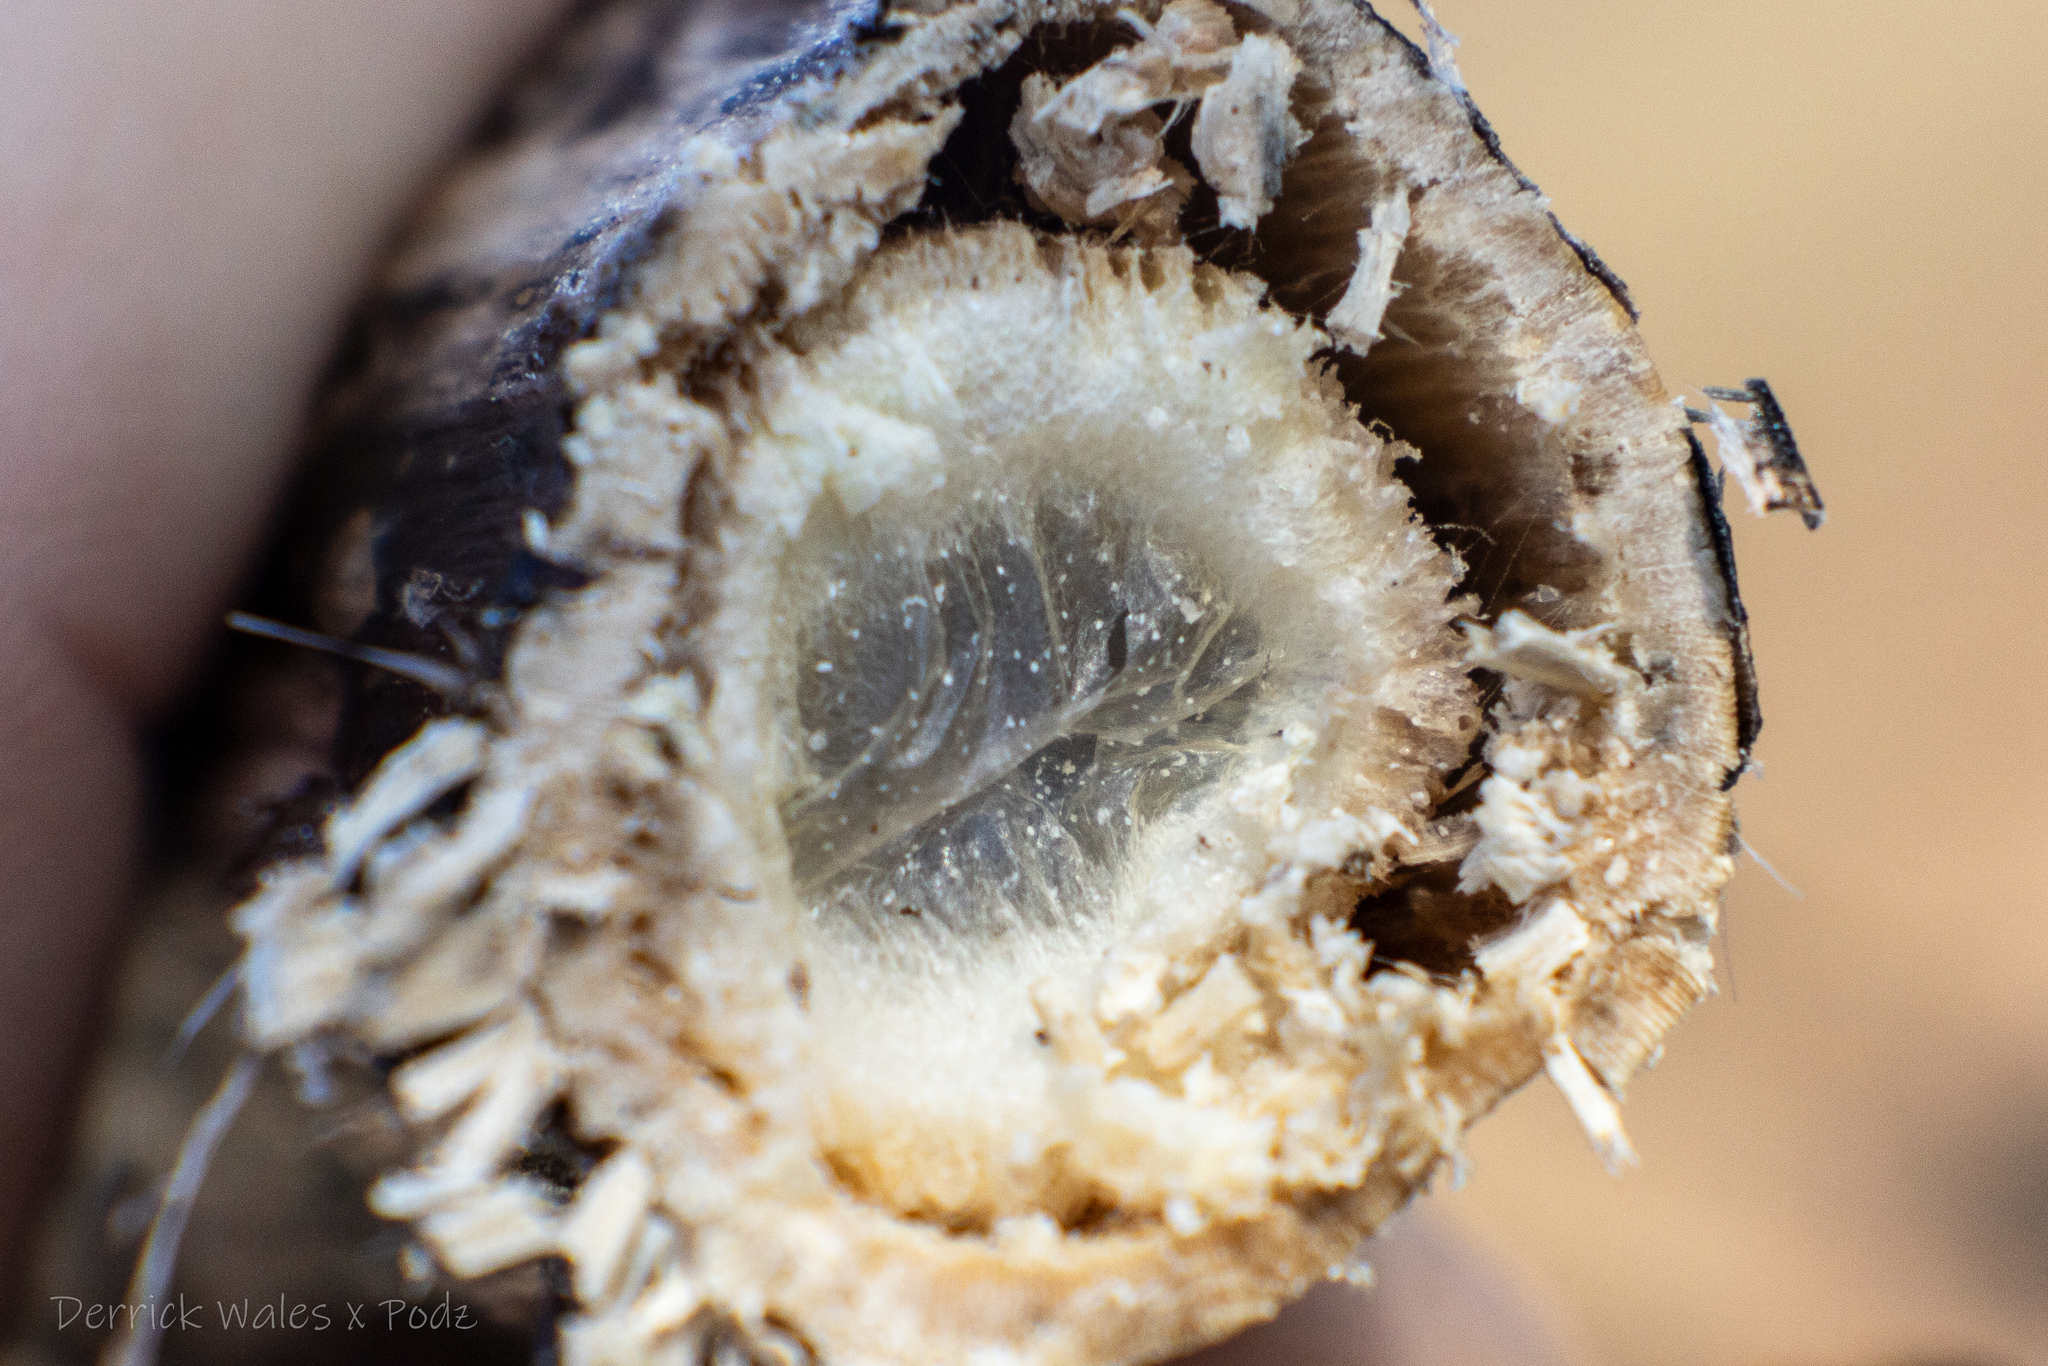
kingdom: Plantae
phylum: Tracheophyta
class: Magnoliopsida
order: Caryophyllales
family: Phytolaccaceae
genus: Phytolacca
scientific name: Phytolacca americana
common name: American pokeweed
